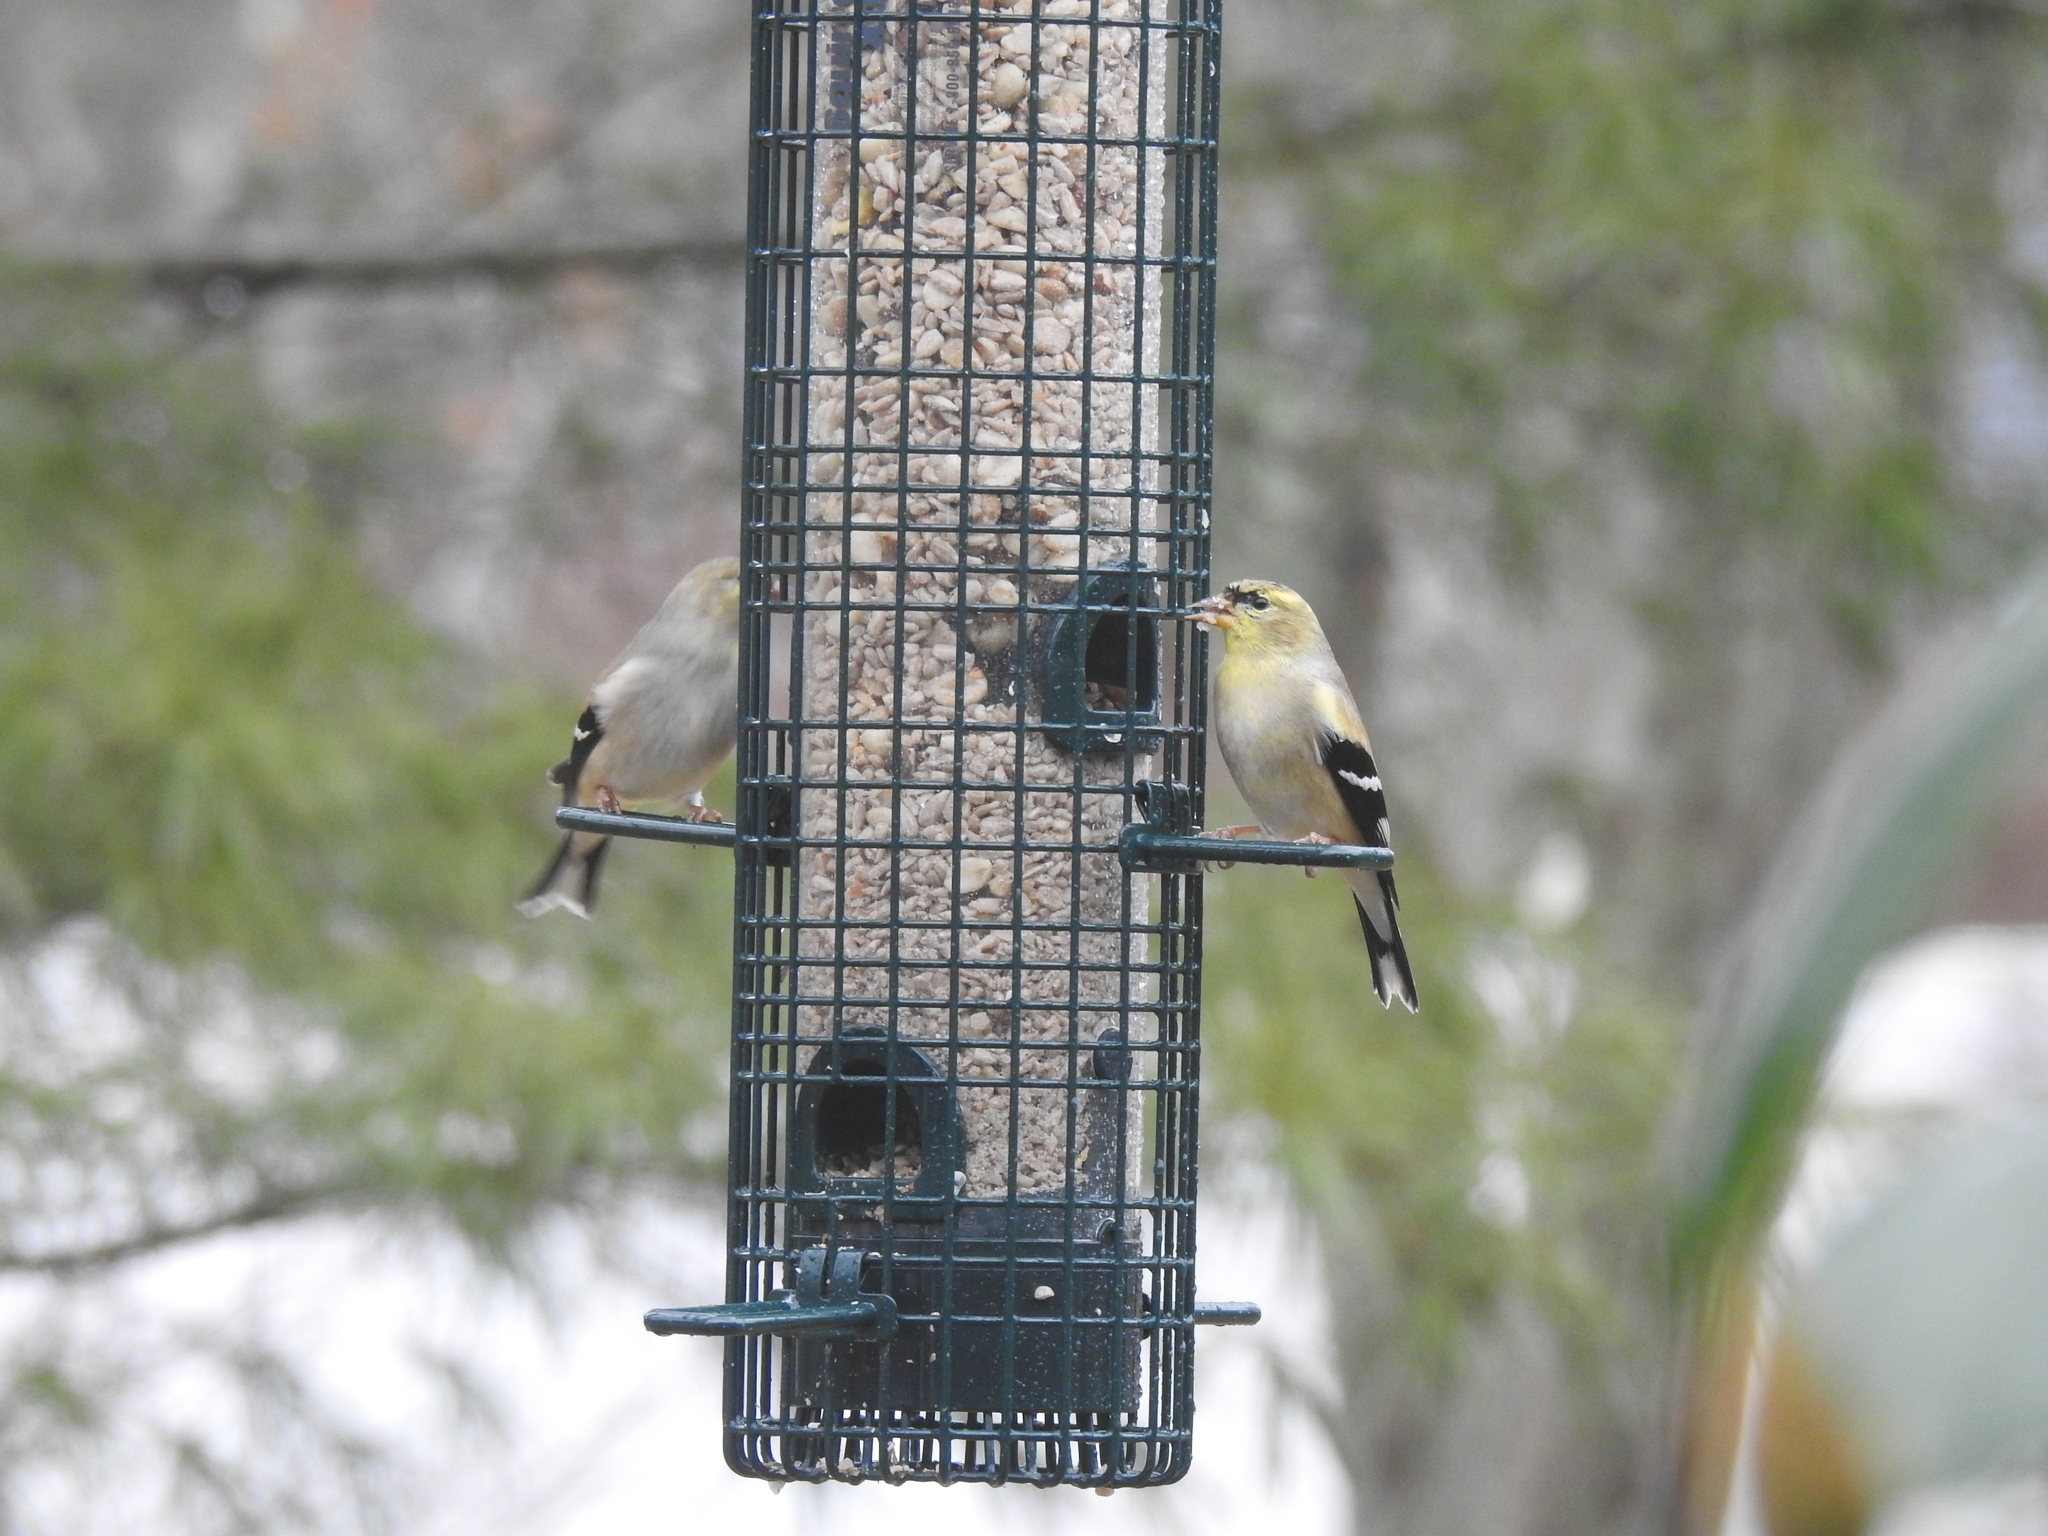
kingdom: Animalia
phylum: Chordata
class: Aves
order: Passeriformes
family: Fringillidae
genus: Spinus
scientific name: Spinus tristis
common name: American goldfinch
